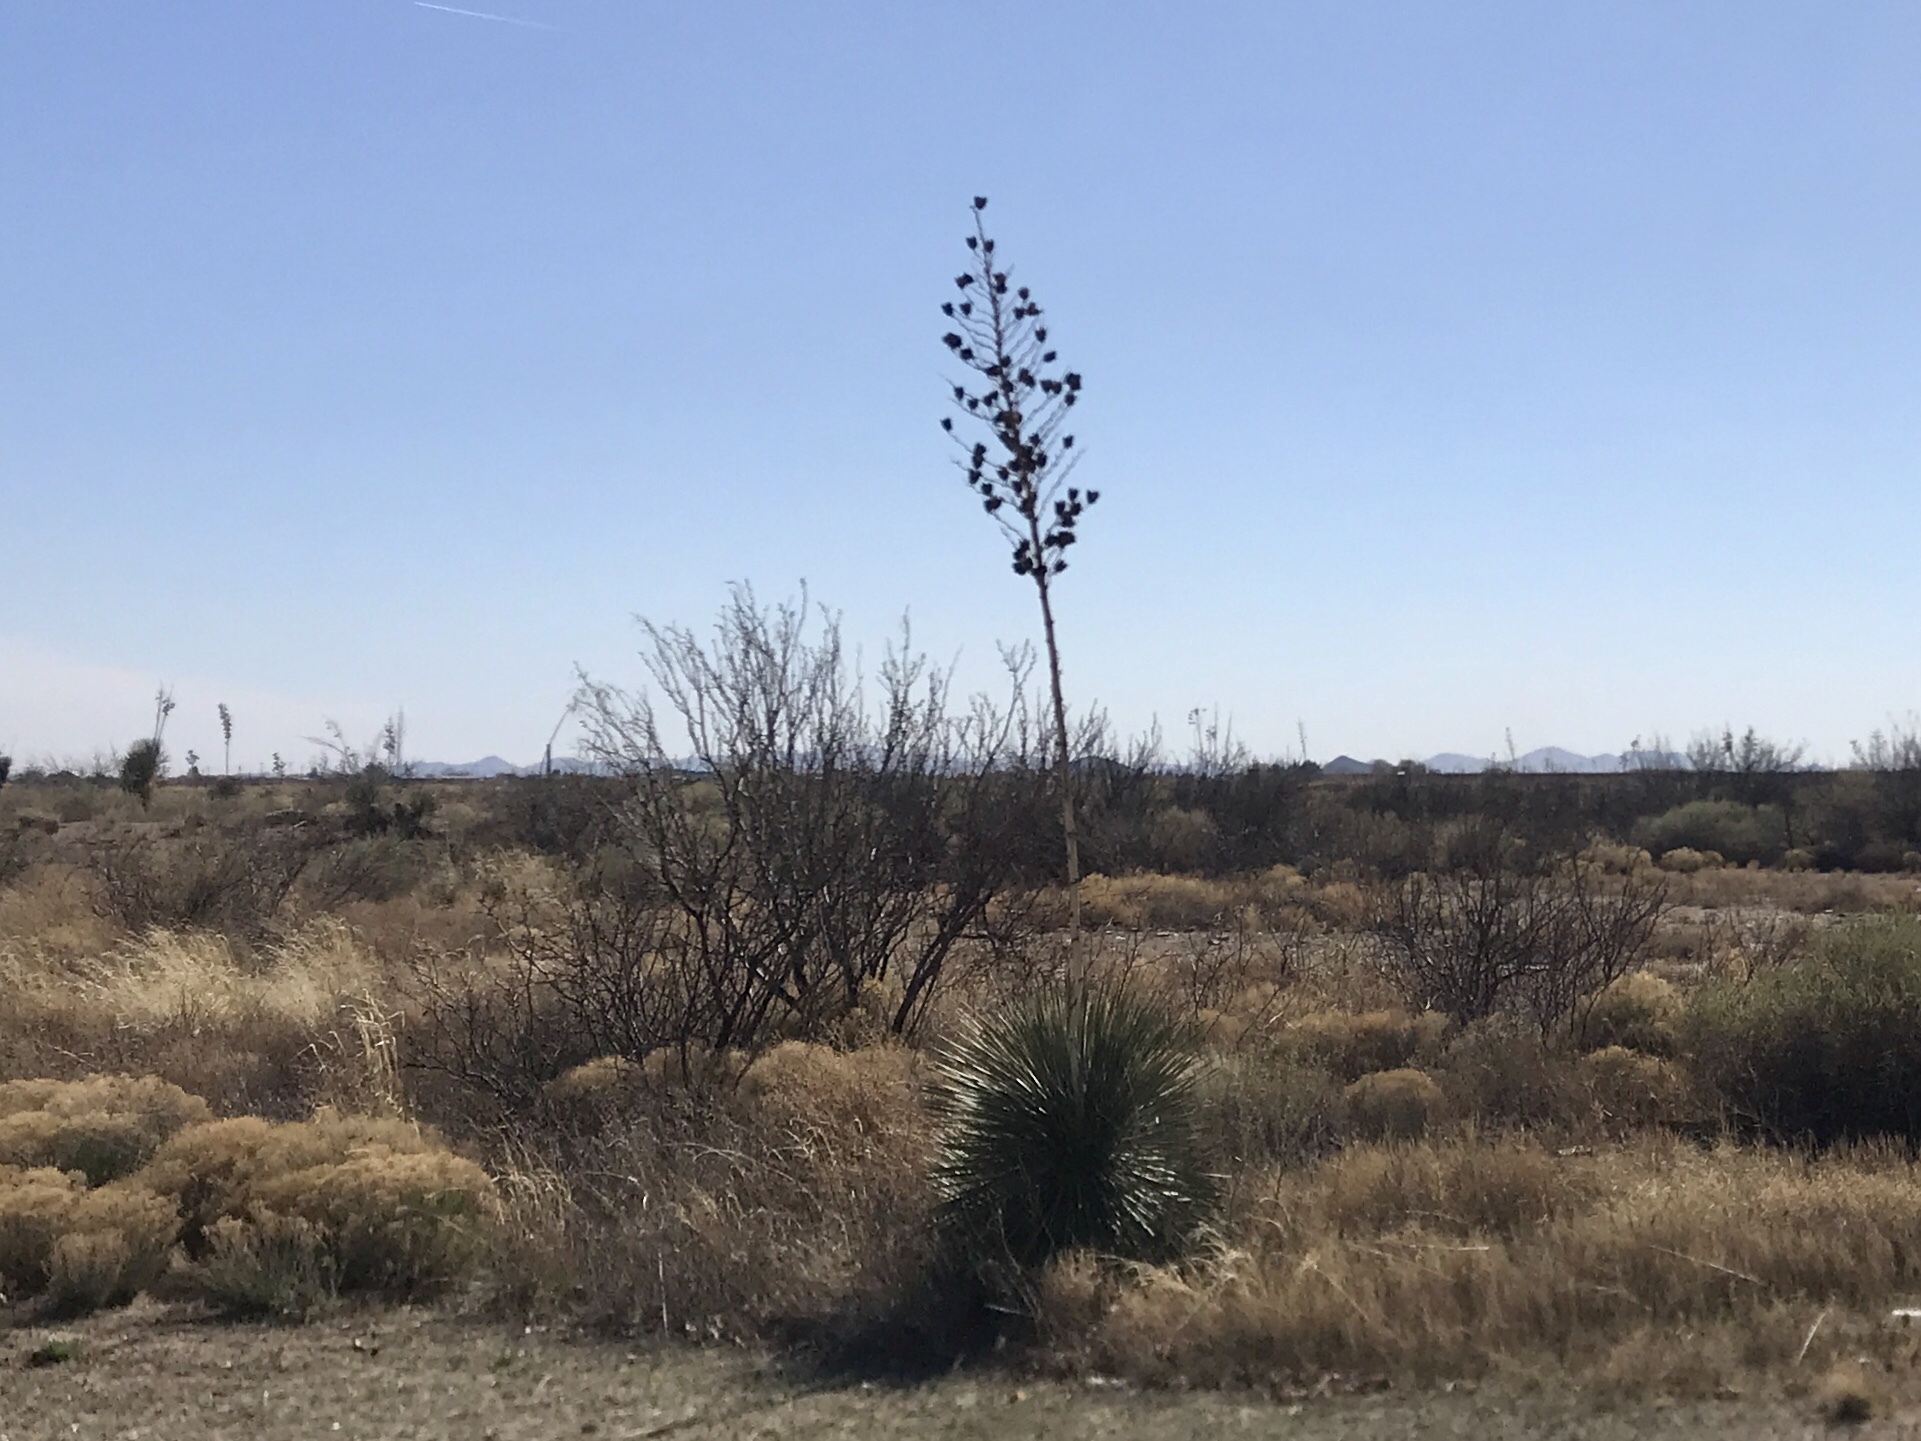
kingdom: Plantae
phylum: Tracheophyta
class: Liliopsida
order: Asparagales
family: Asparagaceae
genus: Yucca
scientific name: Yucca elata
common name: Palmella
